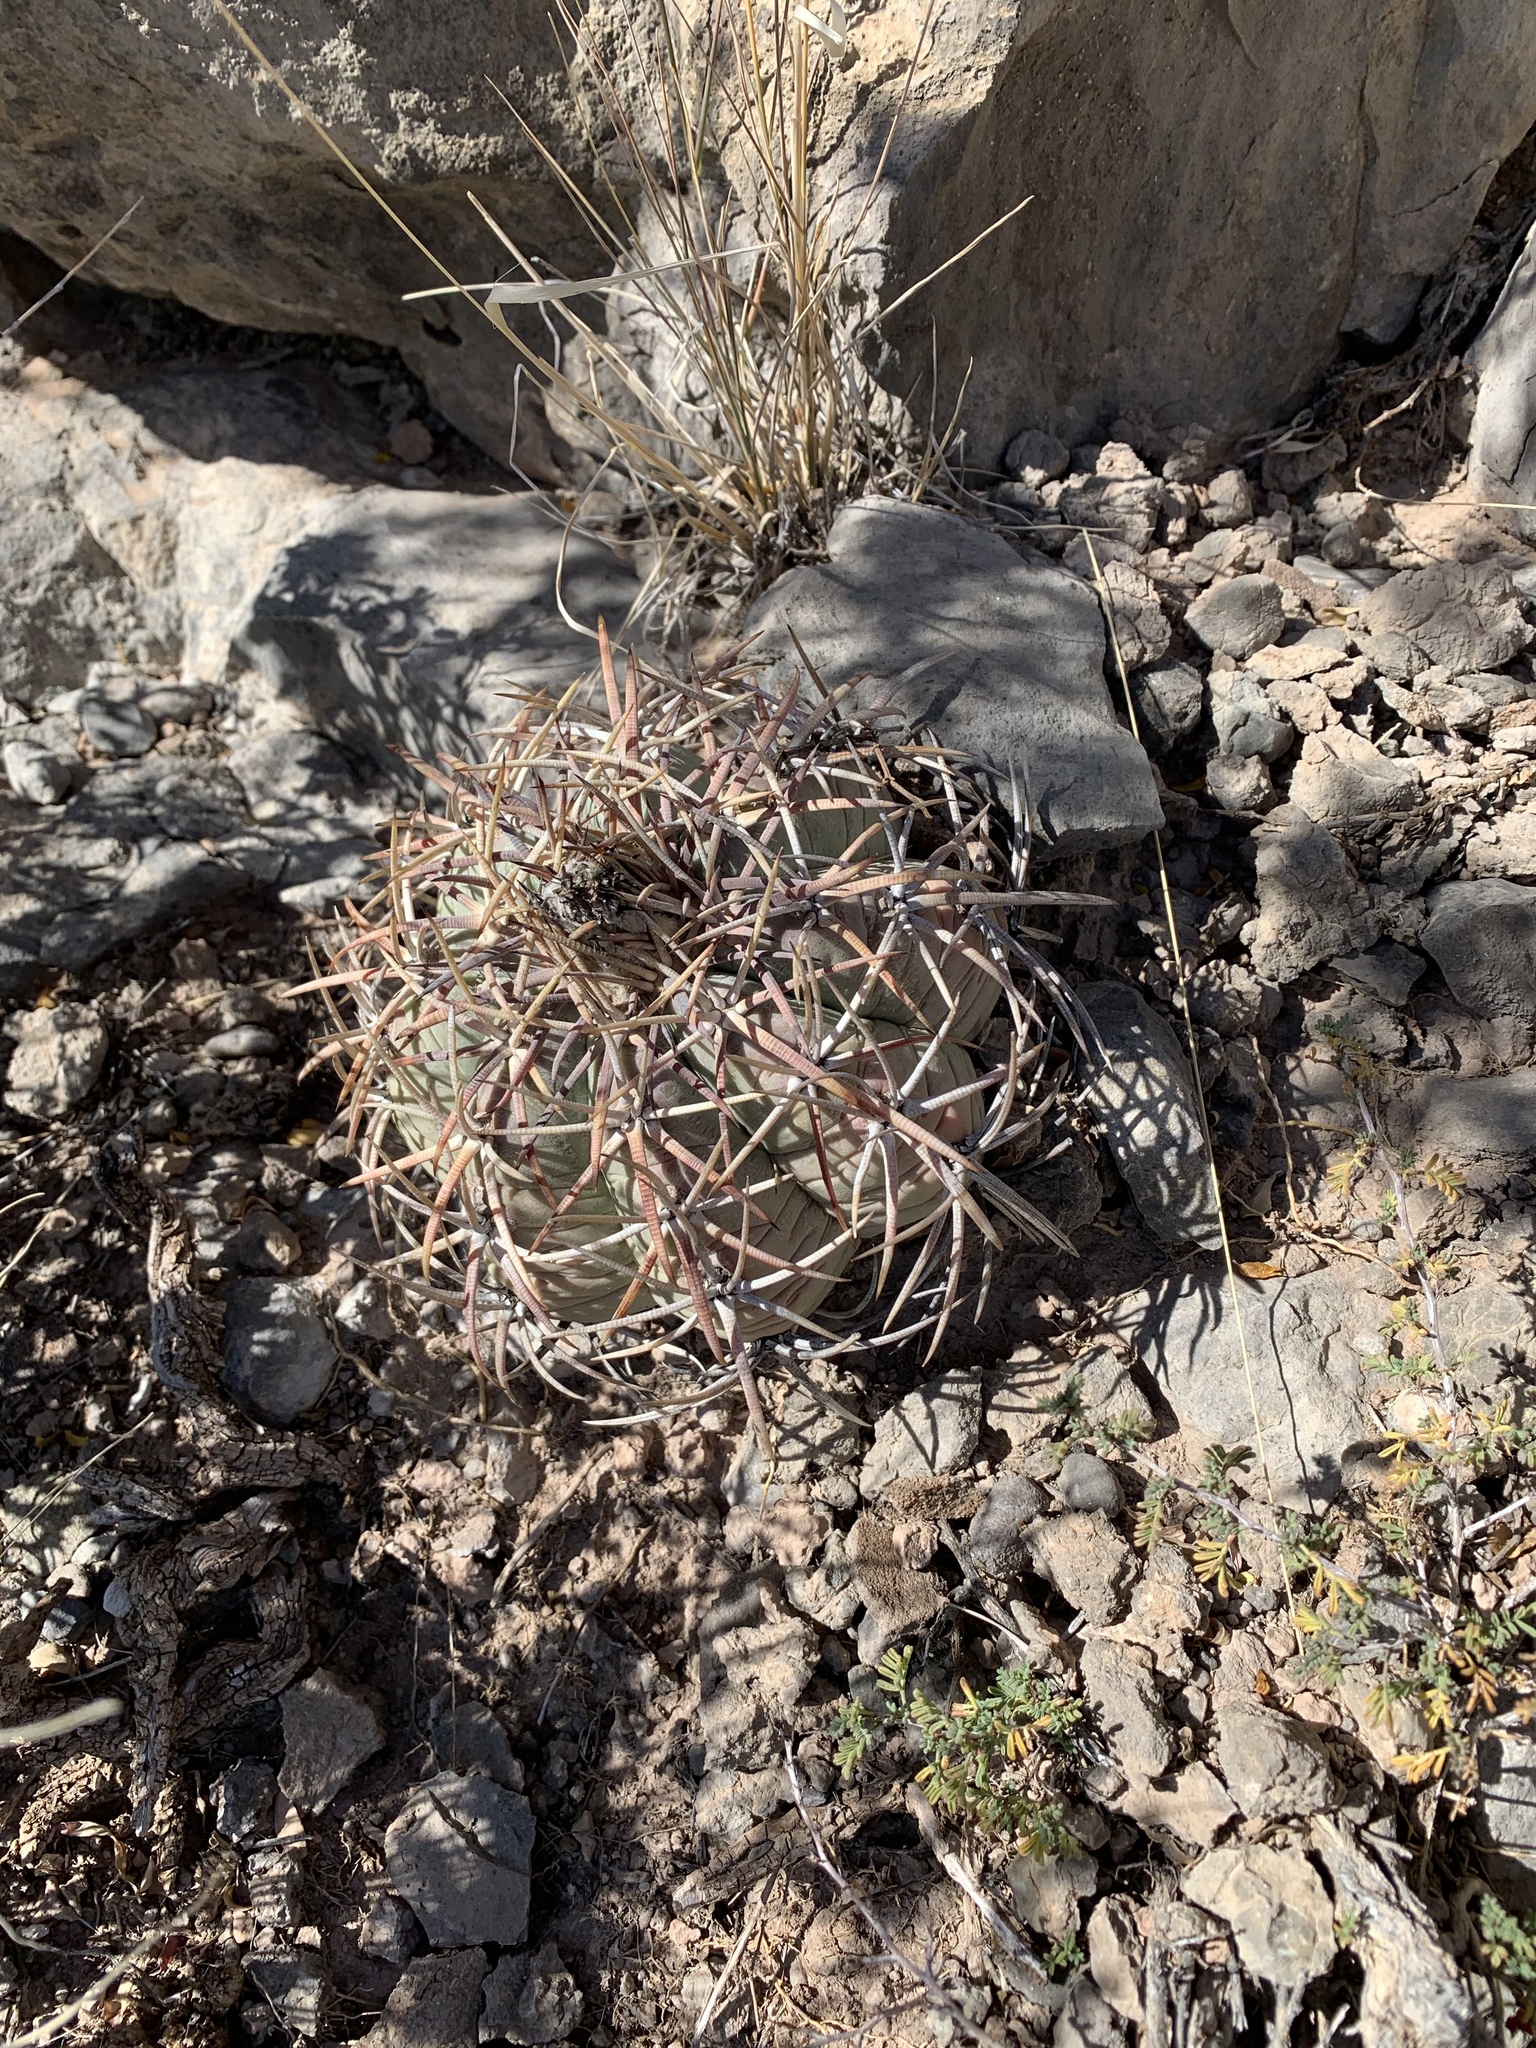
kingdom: Plantae
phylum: Tracheophyta
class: Magnoliopsida
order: Caryophyllales
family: Cactaceae
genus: Echinocactus
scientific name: Echinocactus horizonthalonius
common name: Devilshead
